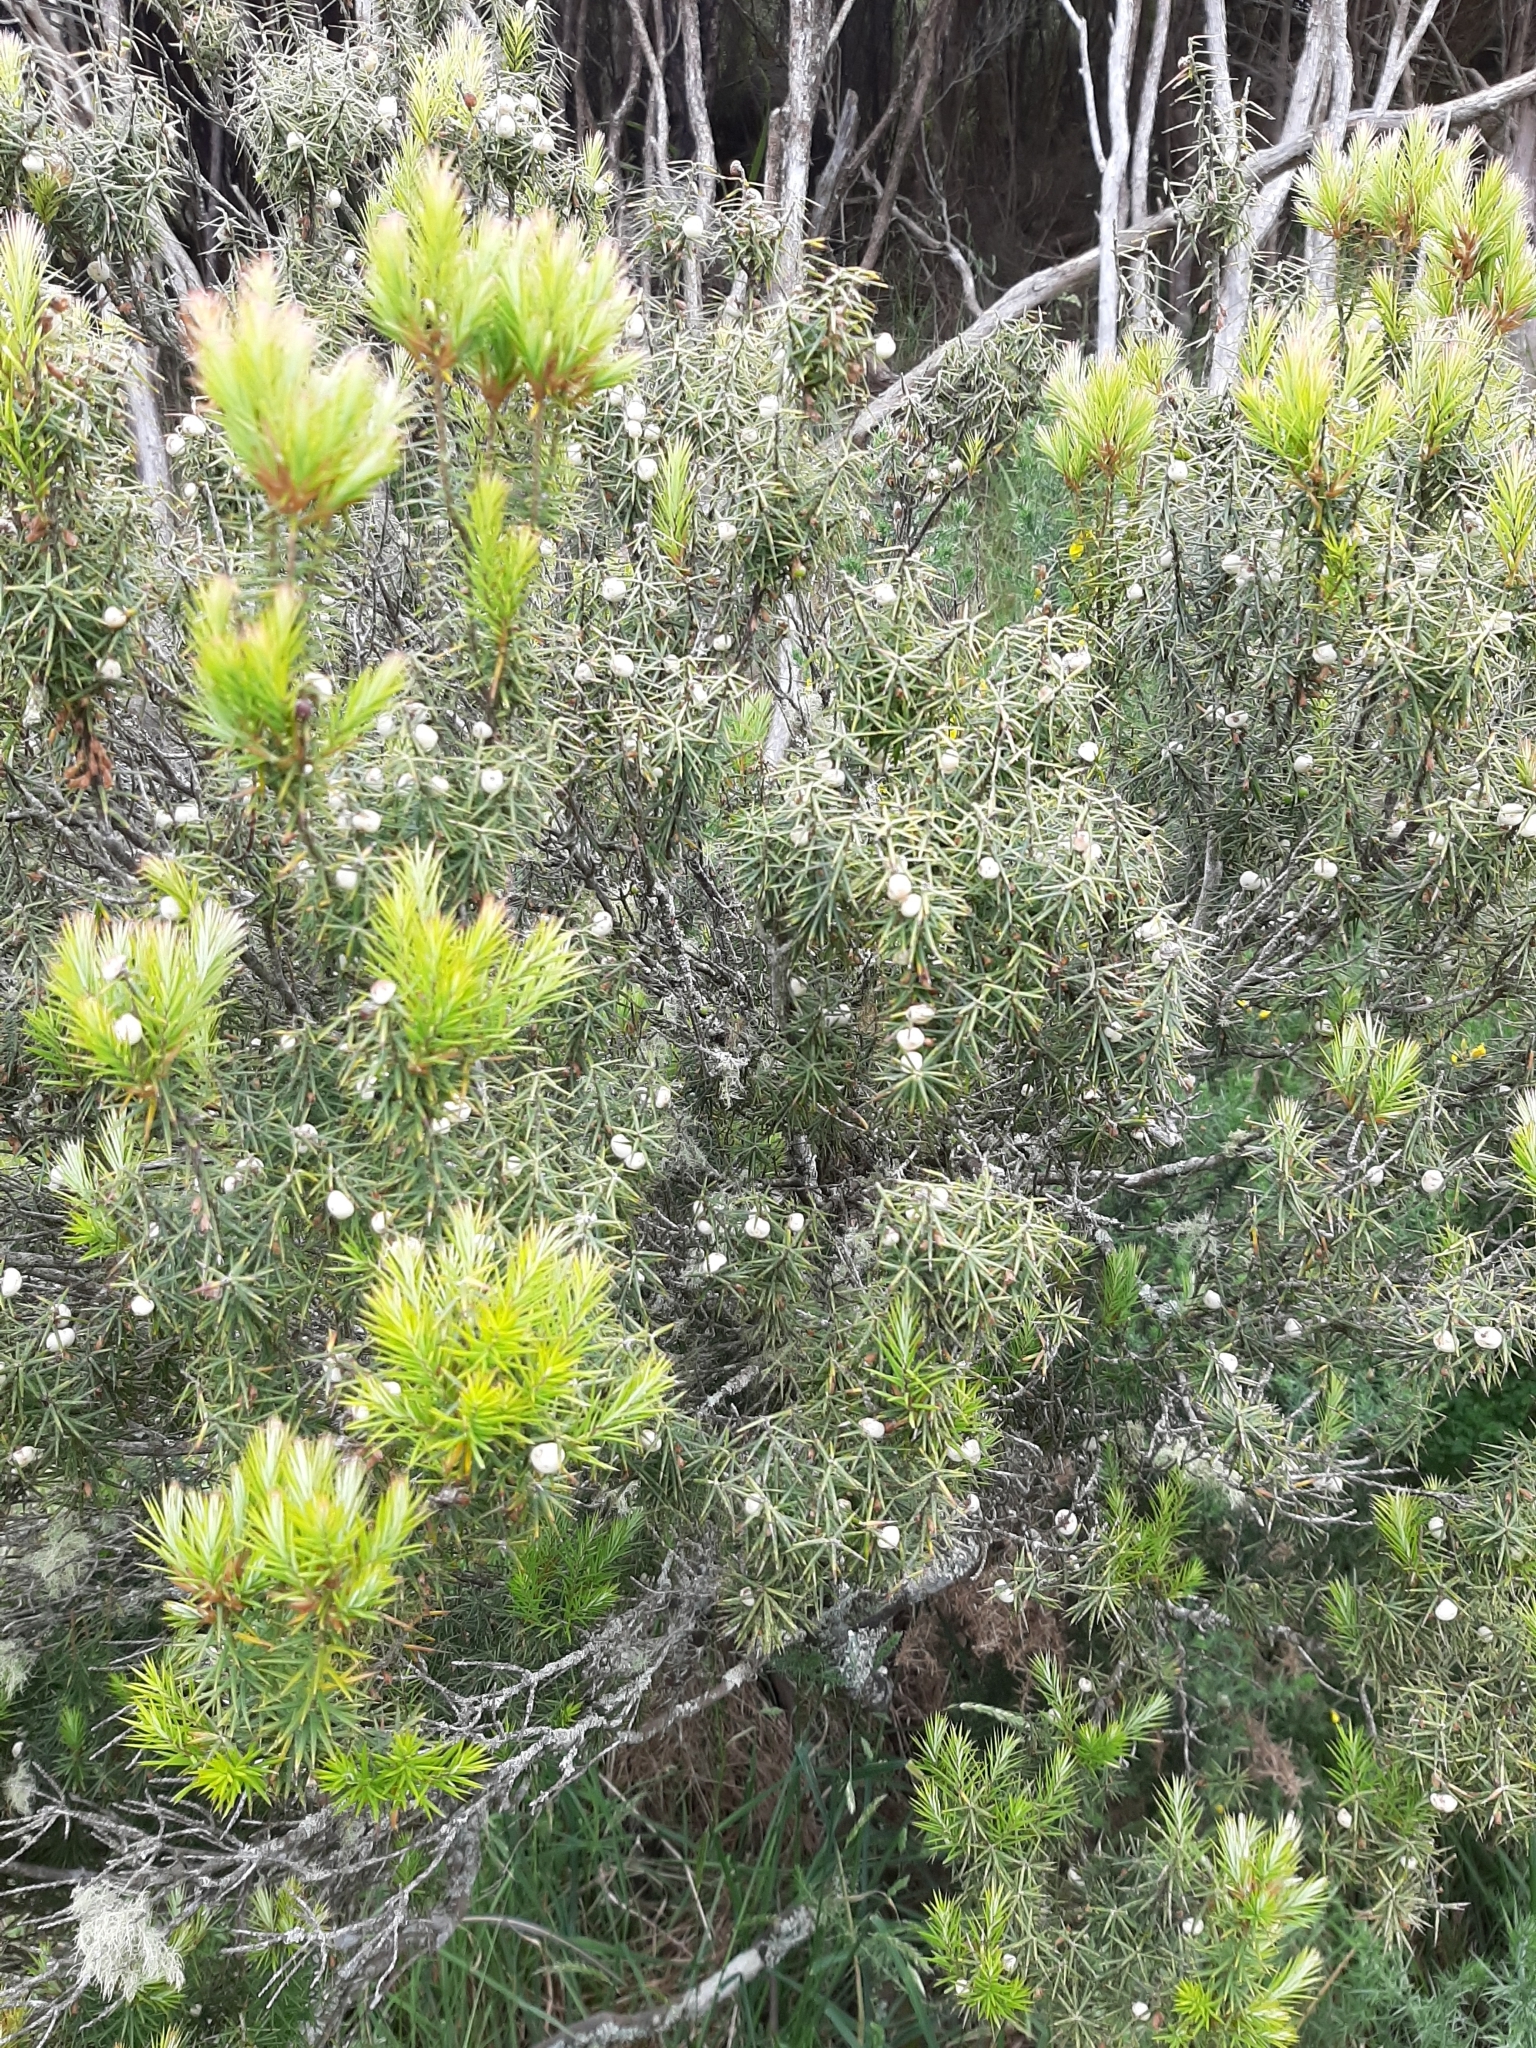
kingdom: Plantae
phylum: Tracheophyta
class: Magnoliopsida
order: Ericales
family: Ericaceae
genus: Leptecophylla
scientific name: Leptecophylla juniperina
